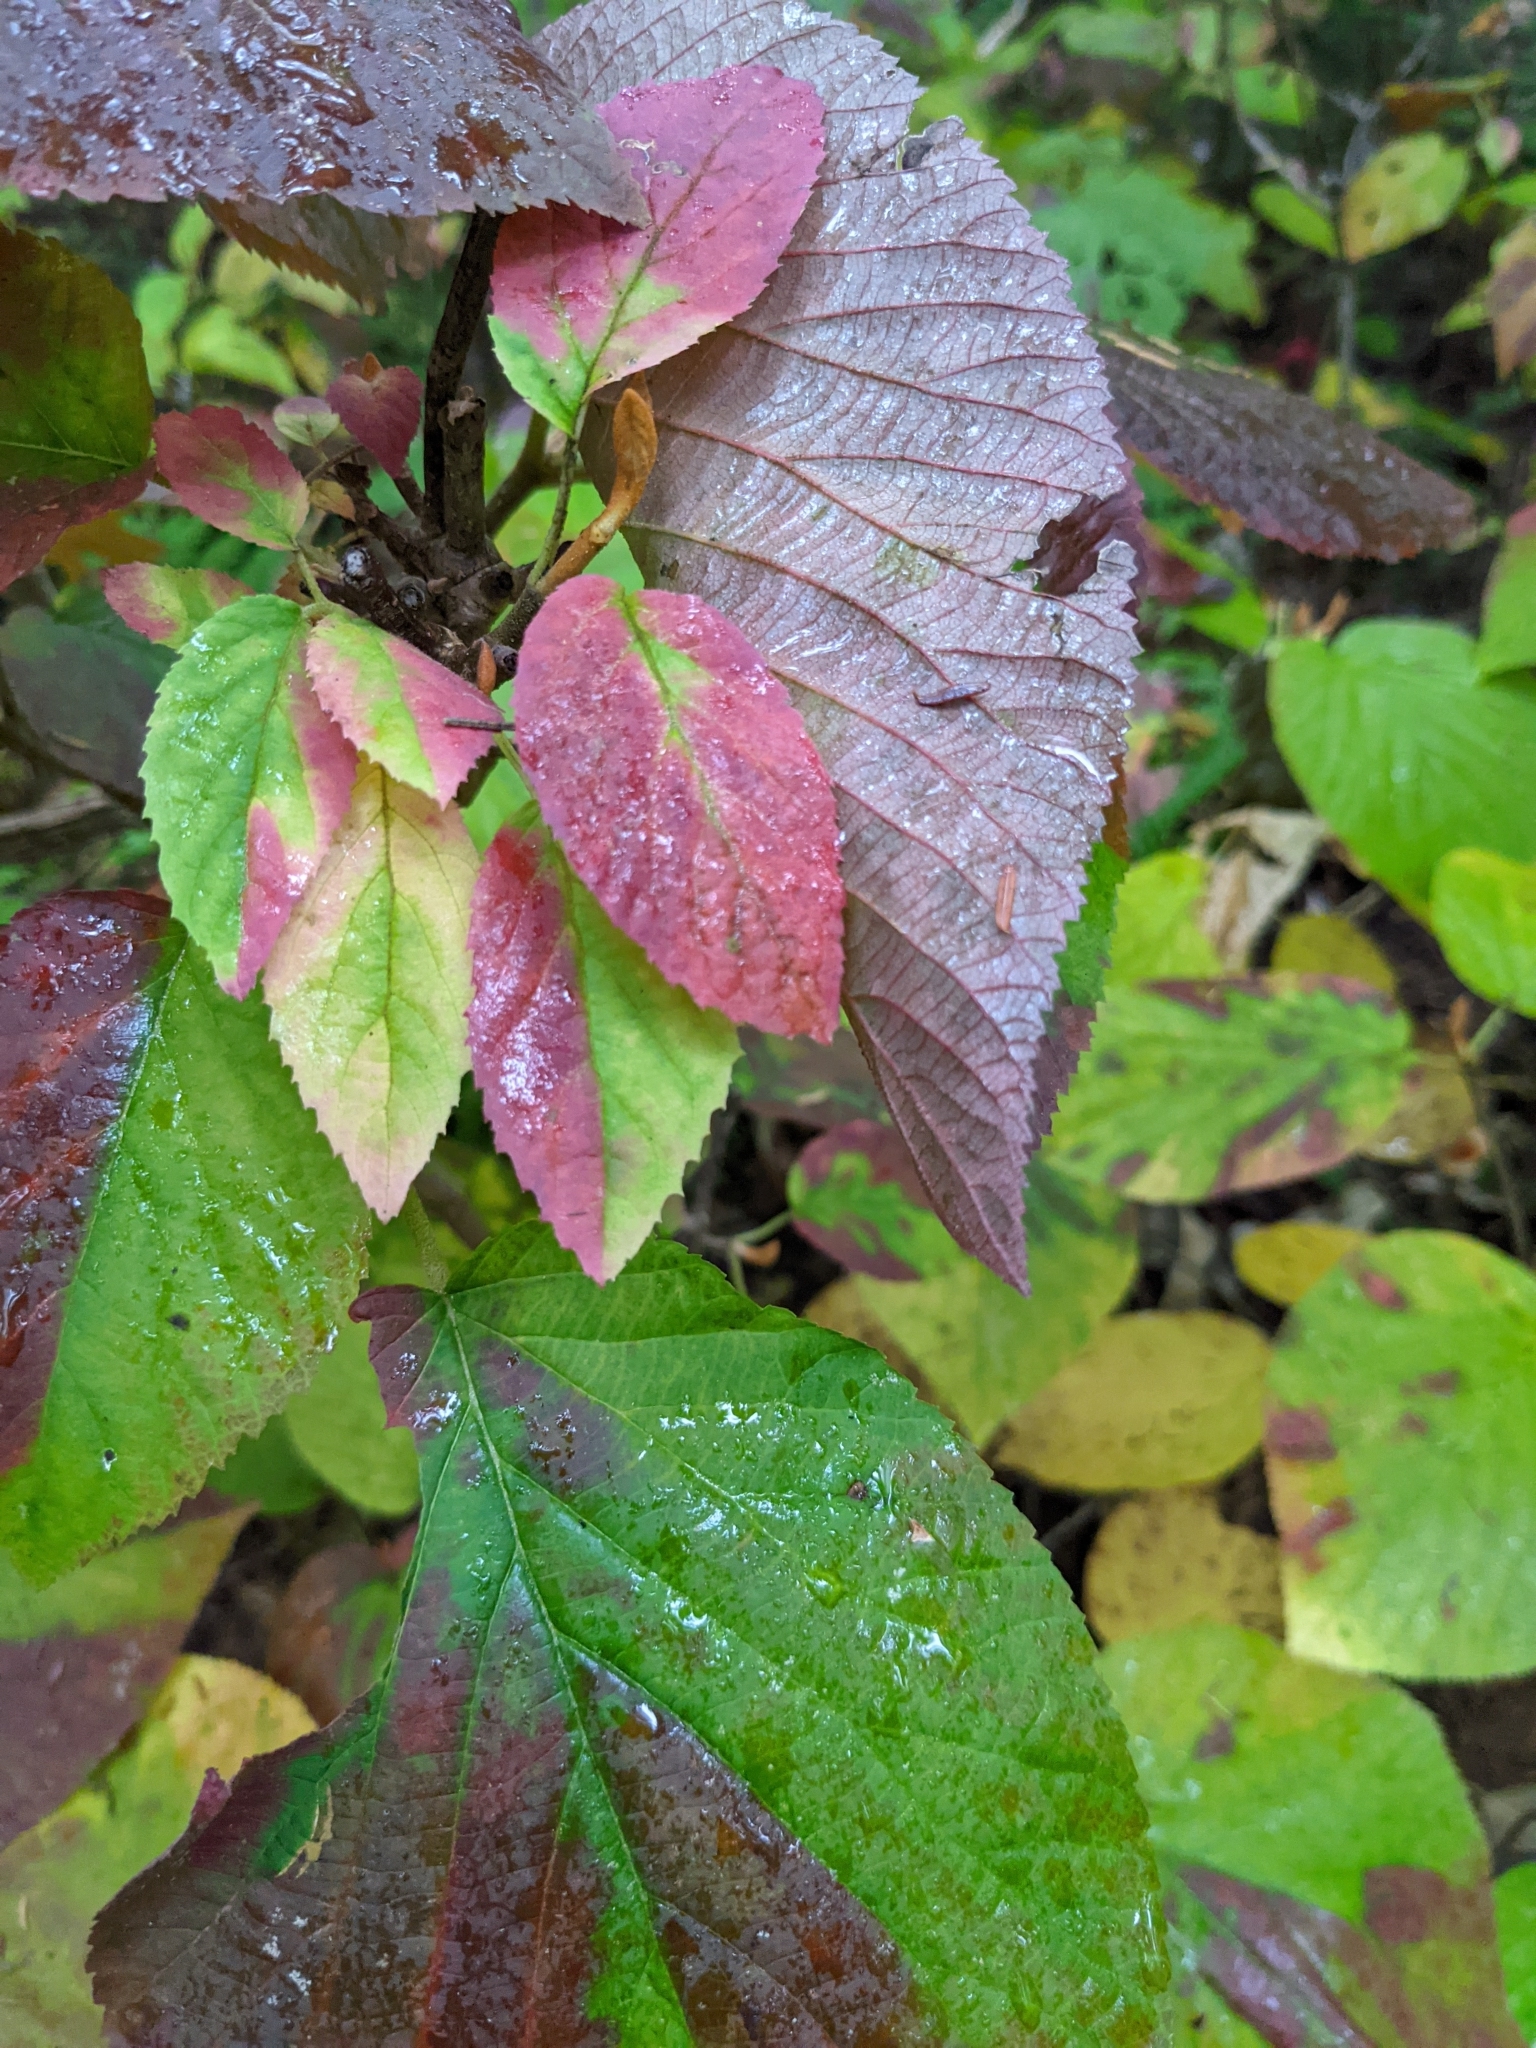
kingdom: Plantae
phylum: Tracheophyta
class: Magnoliopsida
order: Dipsacales
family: Viburnaceae
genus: Viburnum
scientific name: Viburnum lantanoides
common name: Hobblebush
